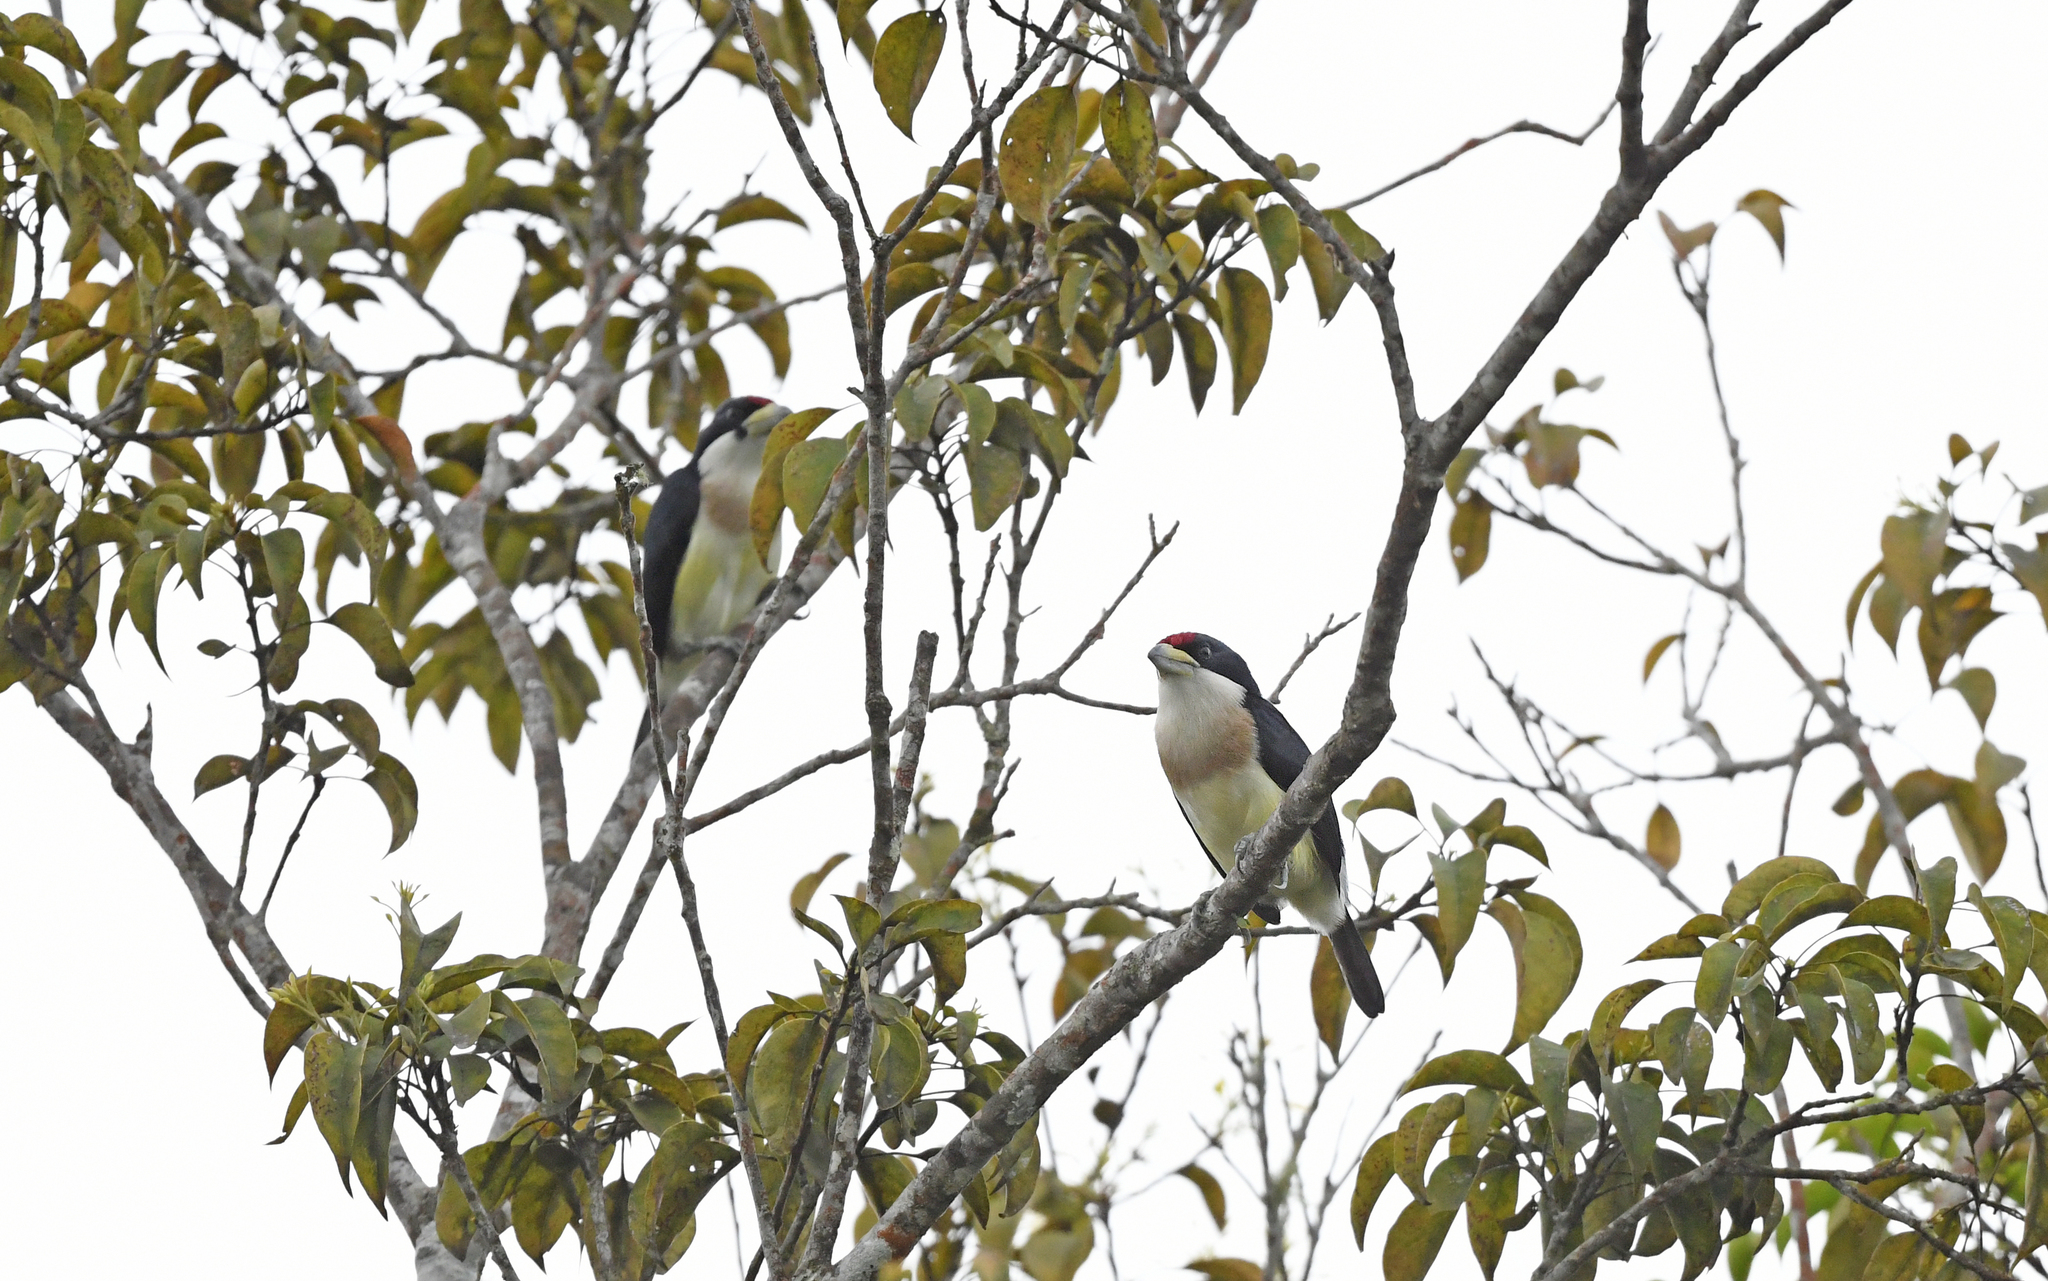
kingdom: Animalia
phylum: Chordata
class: Aves
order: Piciformes
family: Capitonidae
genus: Capito
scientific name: Capito hypoleucus
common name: White-mantled barbet
